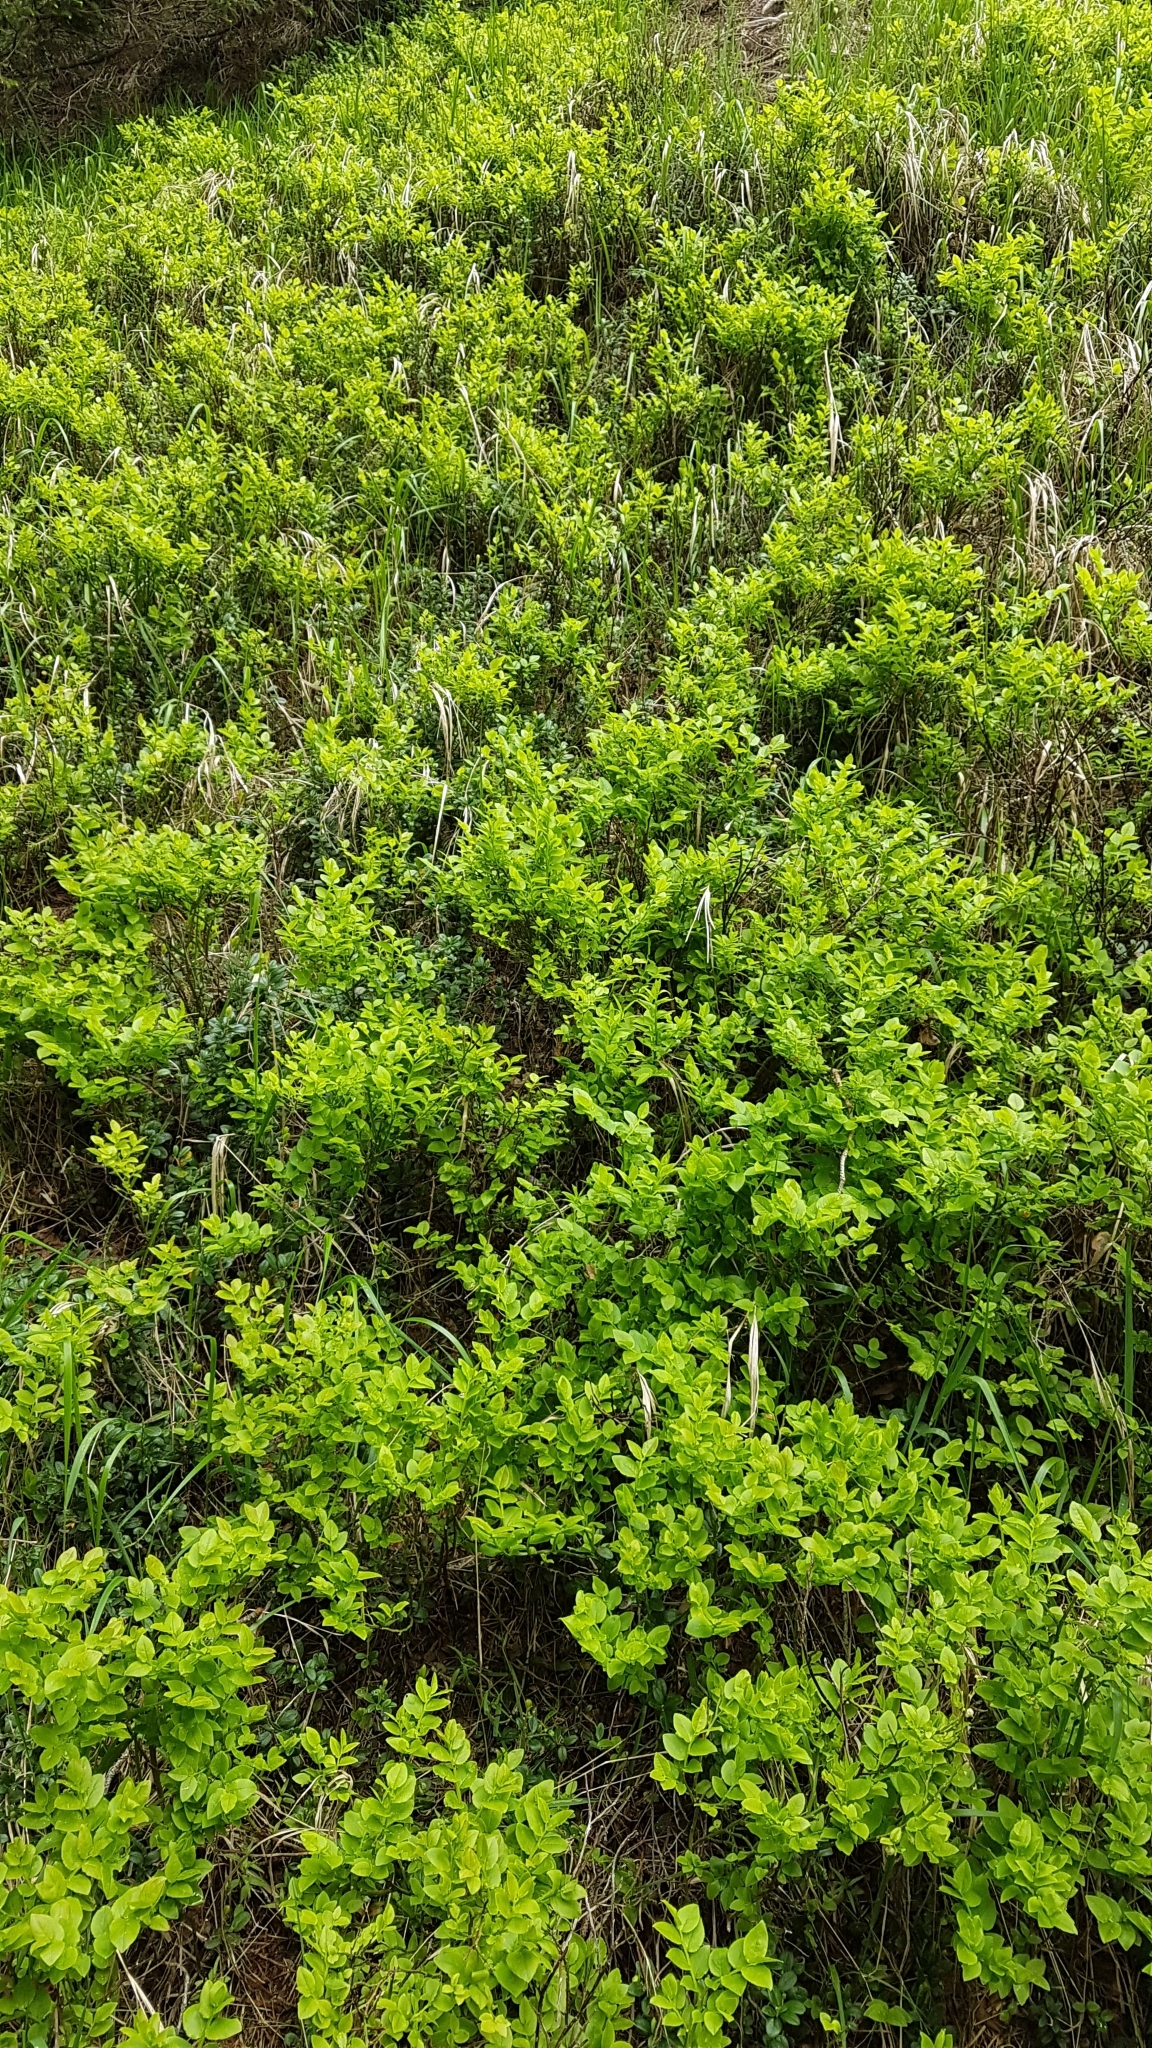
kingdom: Plantae
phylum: Tracheophyta
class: Magnoliopsida
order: Ericales
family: Ericaceae
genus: Vaccinium
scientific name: Vaccinium myrtillus
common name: Bilberry
